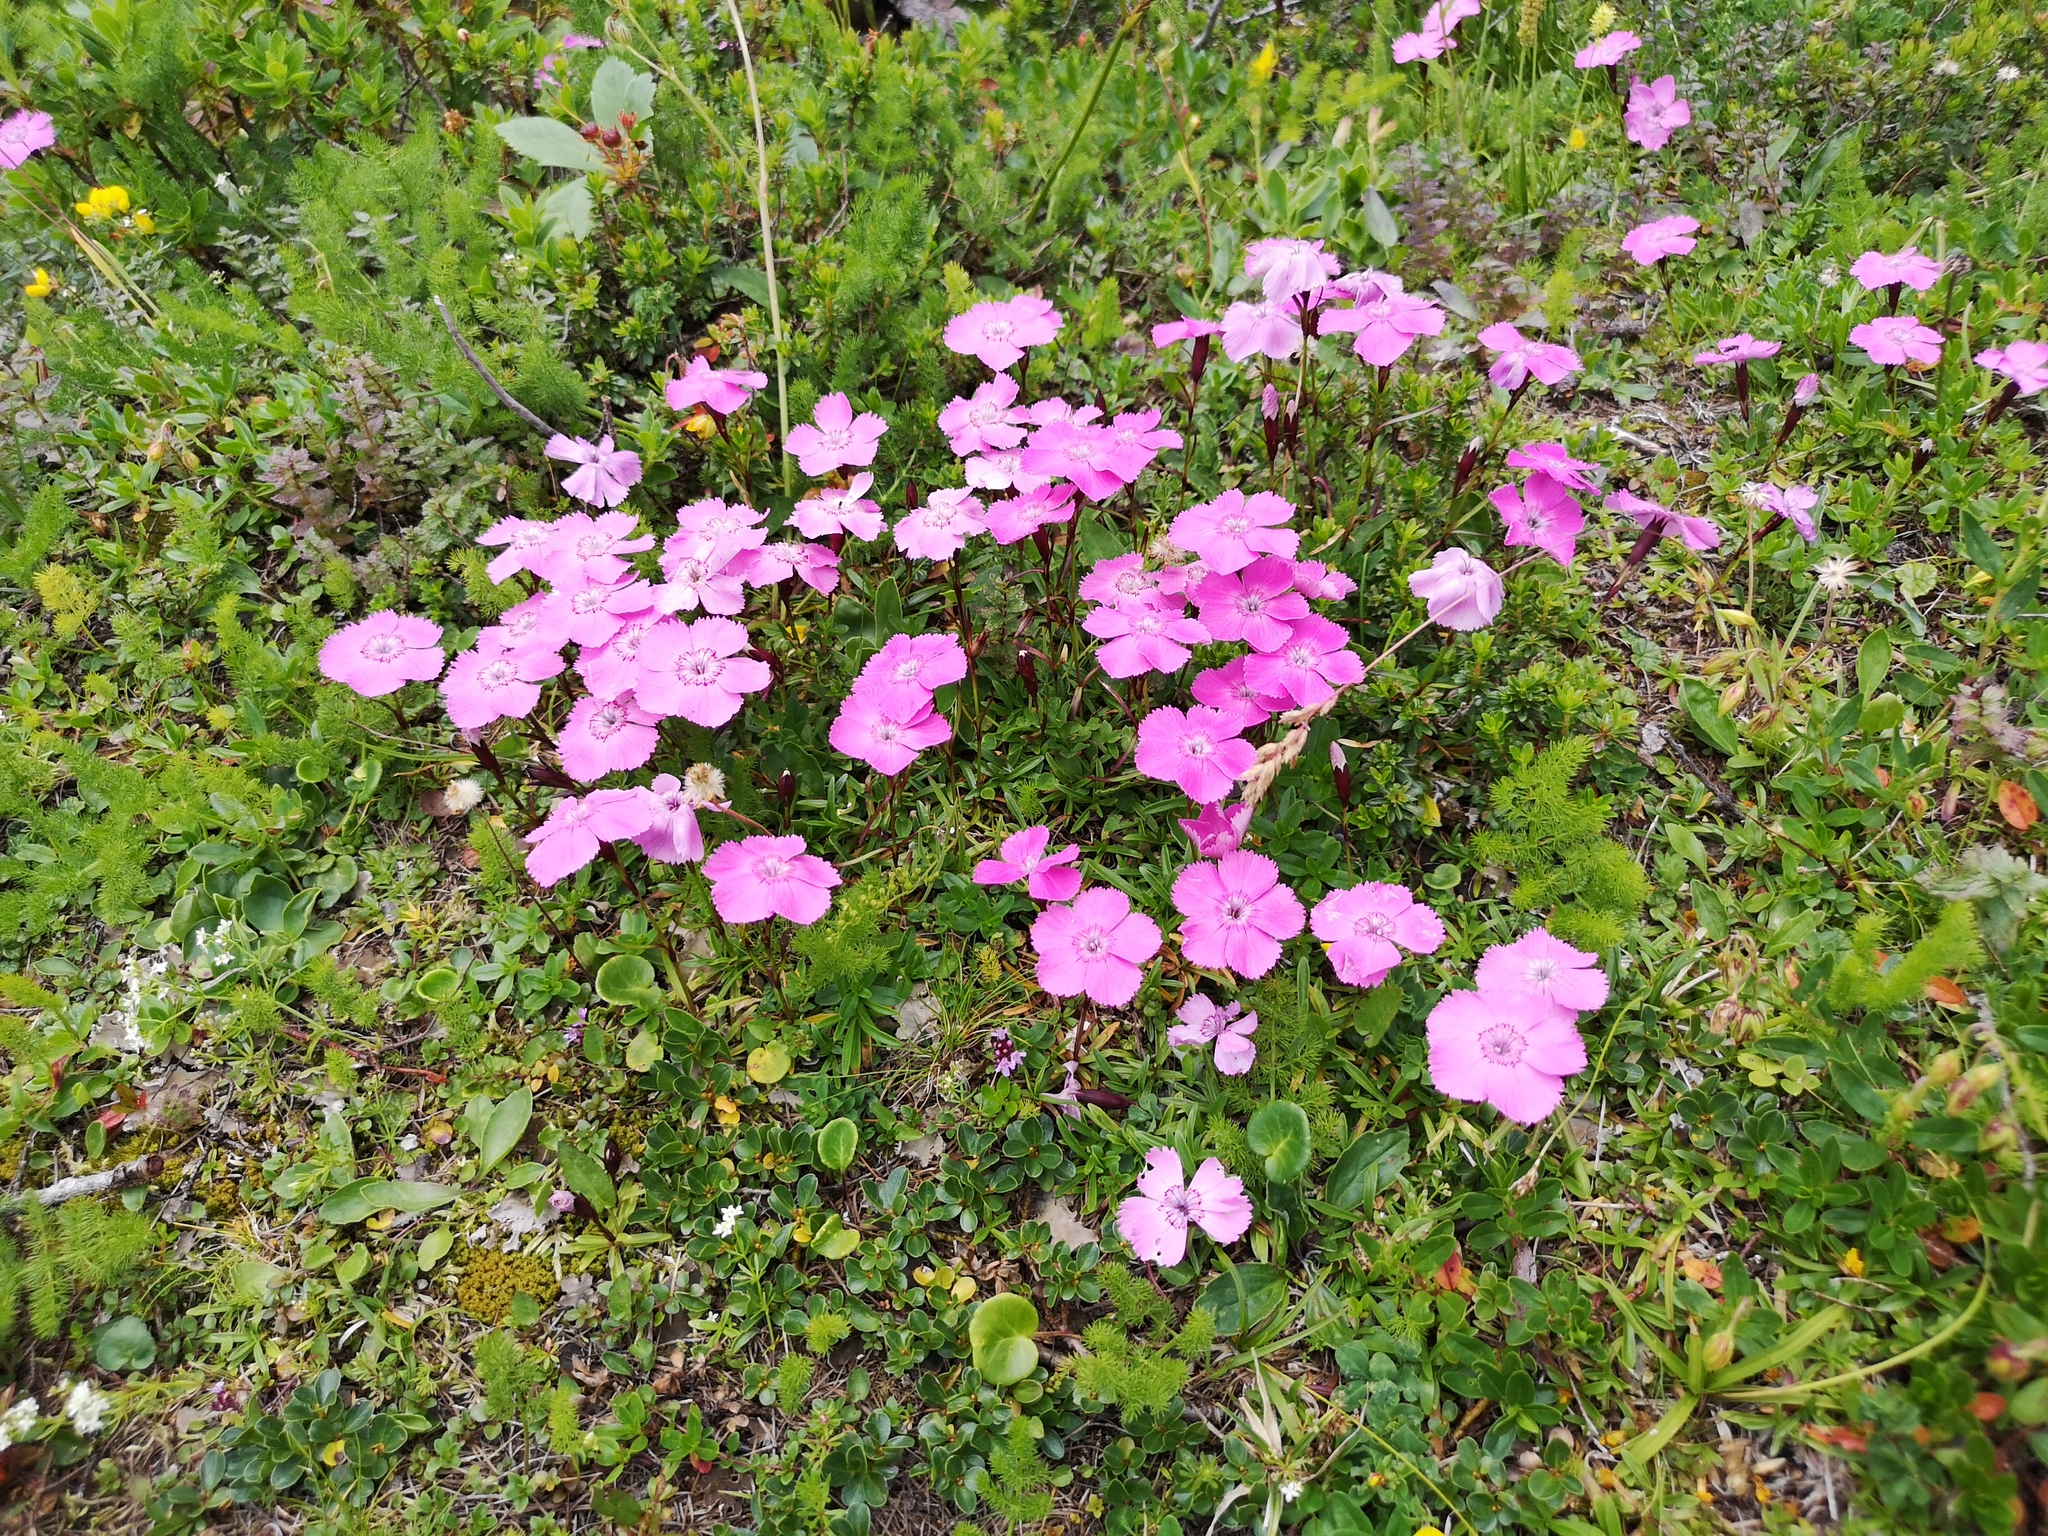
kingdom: Plantae
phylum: Tracheophyta
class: Magnoliopsida
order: Caryophyllales
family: Caryophyllaceae
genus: Dianthus
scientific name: Dianthus alpinus
